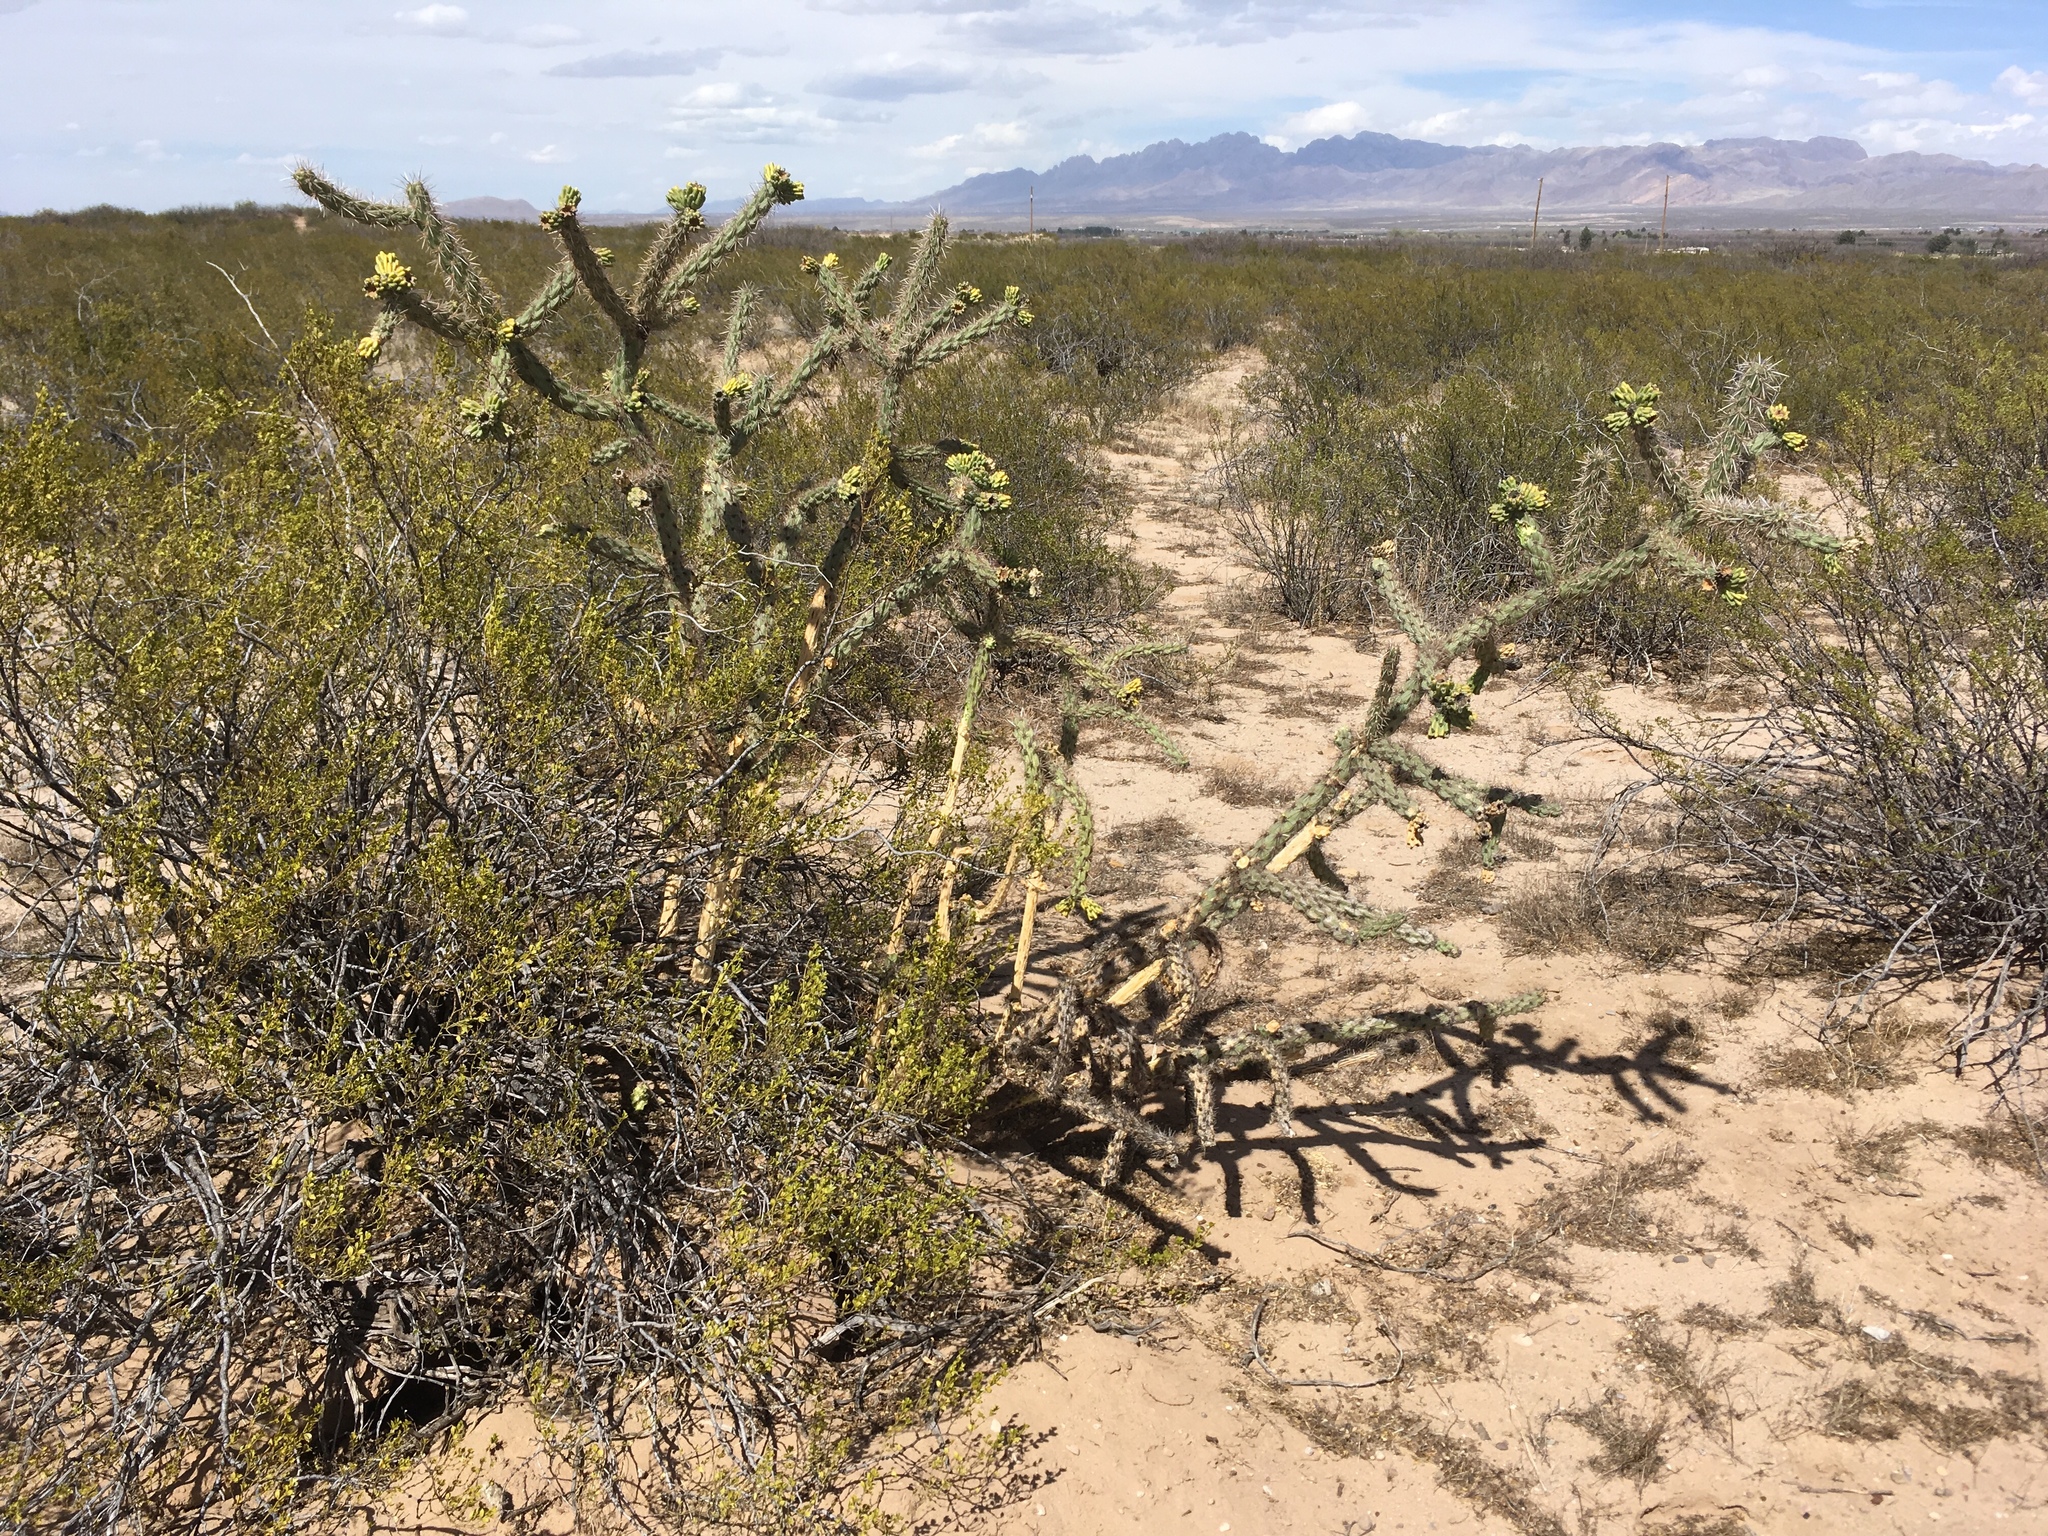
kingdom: Plantae
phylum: Tracheophyta
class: Magnoliopsida
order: Caryophyllales
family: Cactaceae
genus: Cylindropuntia
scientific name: Cylindropuntia imbricata
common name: Candelabrum cactus
